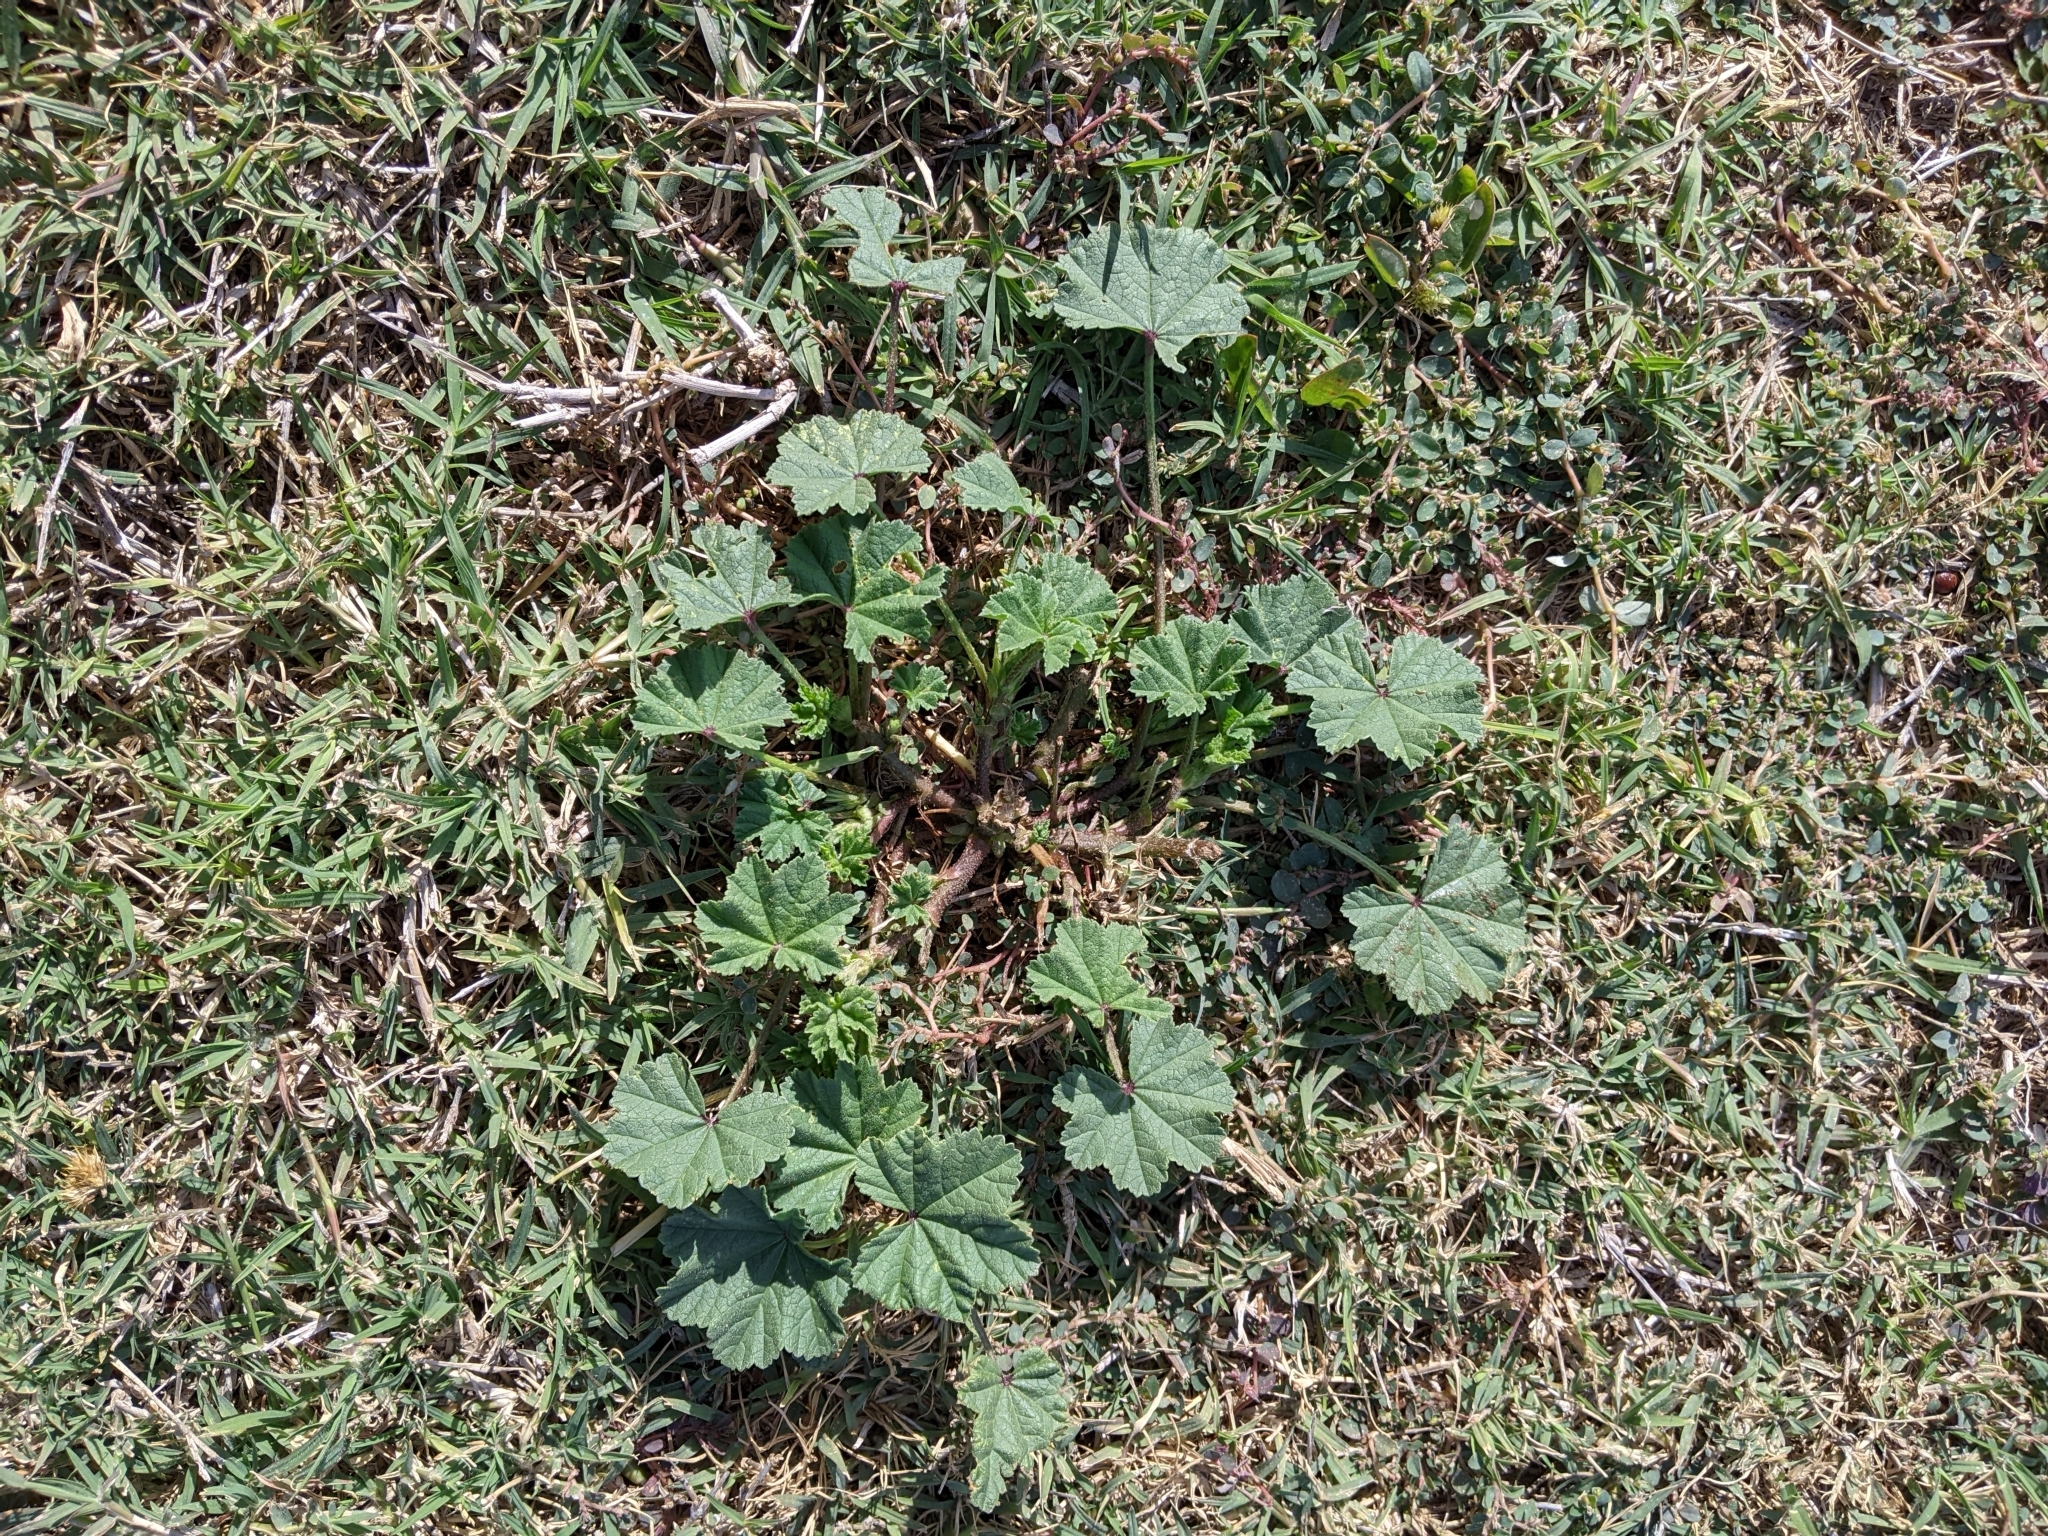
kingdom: Plantae
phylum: Tracheophyta
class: Magnoliopsida
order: Malvales
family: Malvaceae
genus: Malva
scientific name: Malva parviflora
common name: Least mallow
